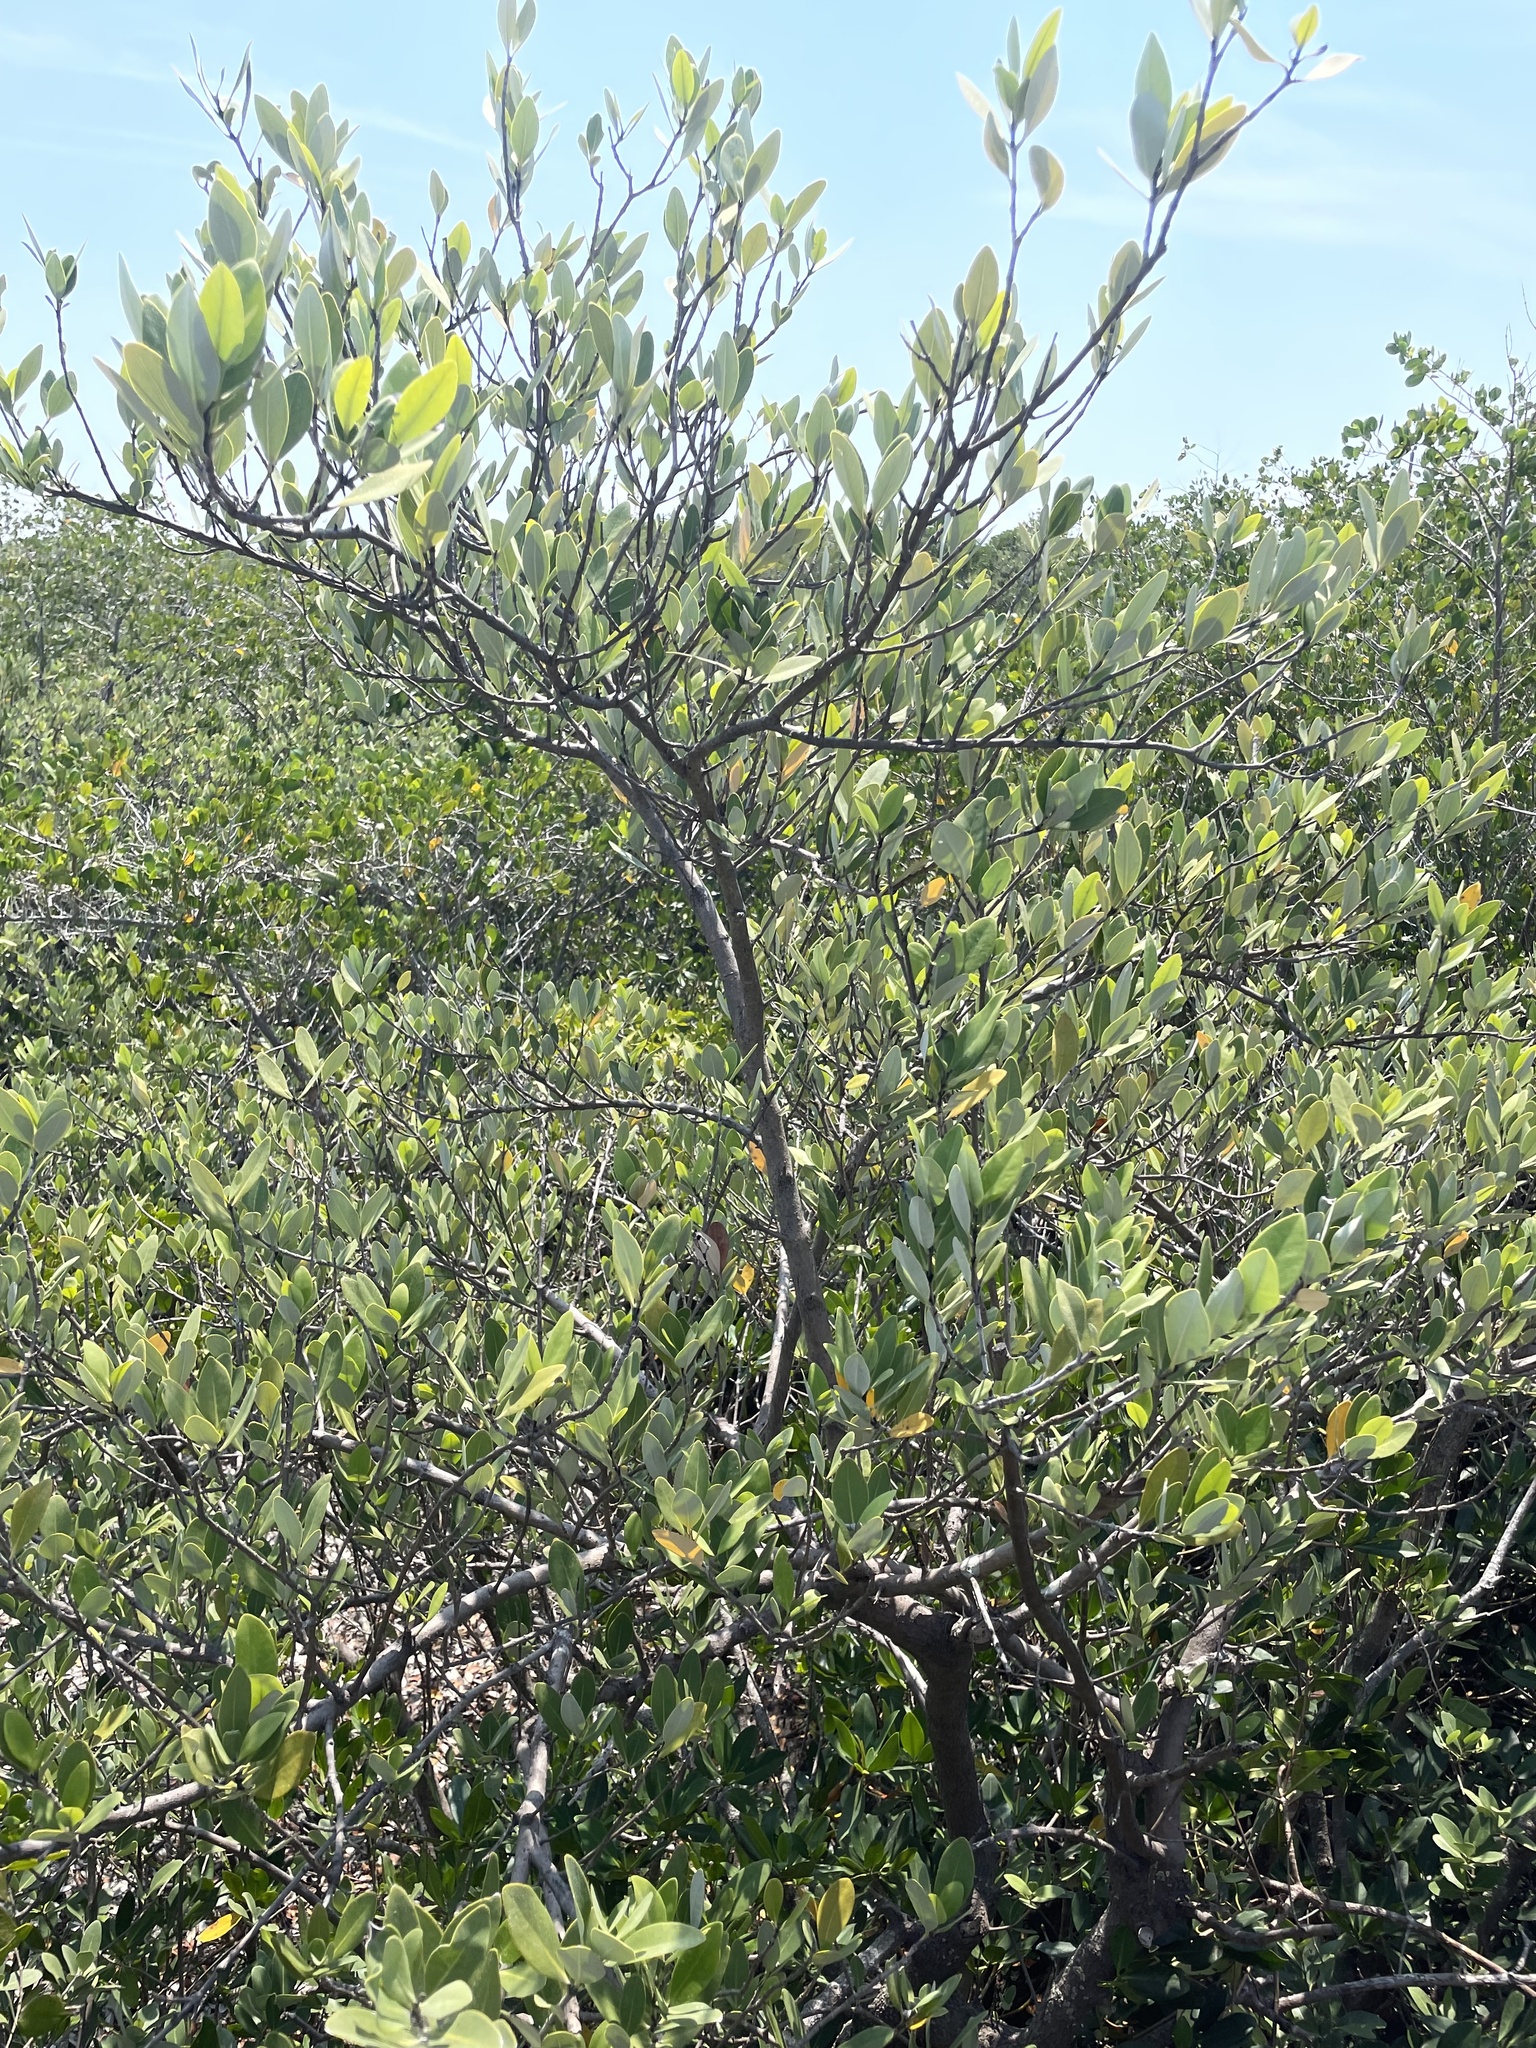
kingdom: Plantae
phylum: Tracheophyta
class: Magnoliopsida
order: Lamiales
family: Acanthaceae
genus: Avicennia
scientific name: Avicennia germinans
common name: Black mangrove
